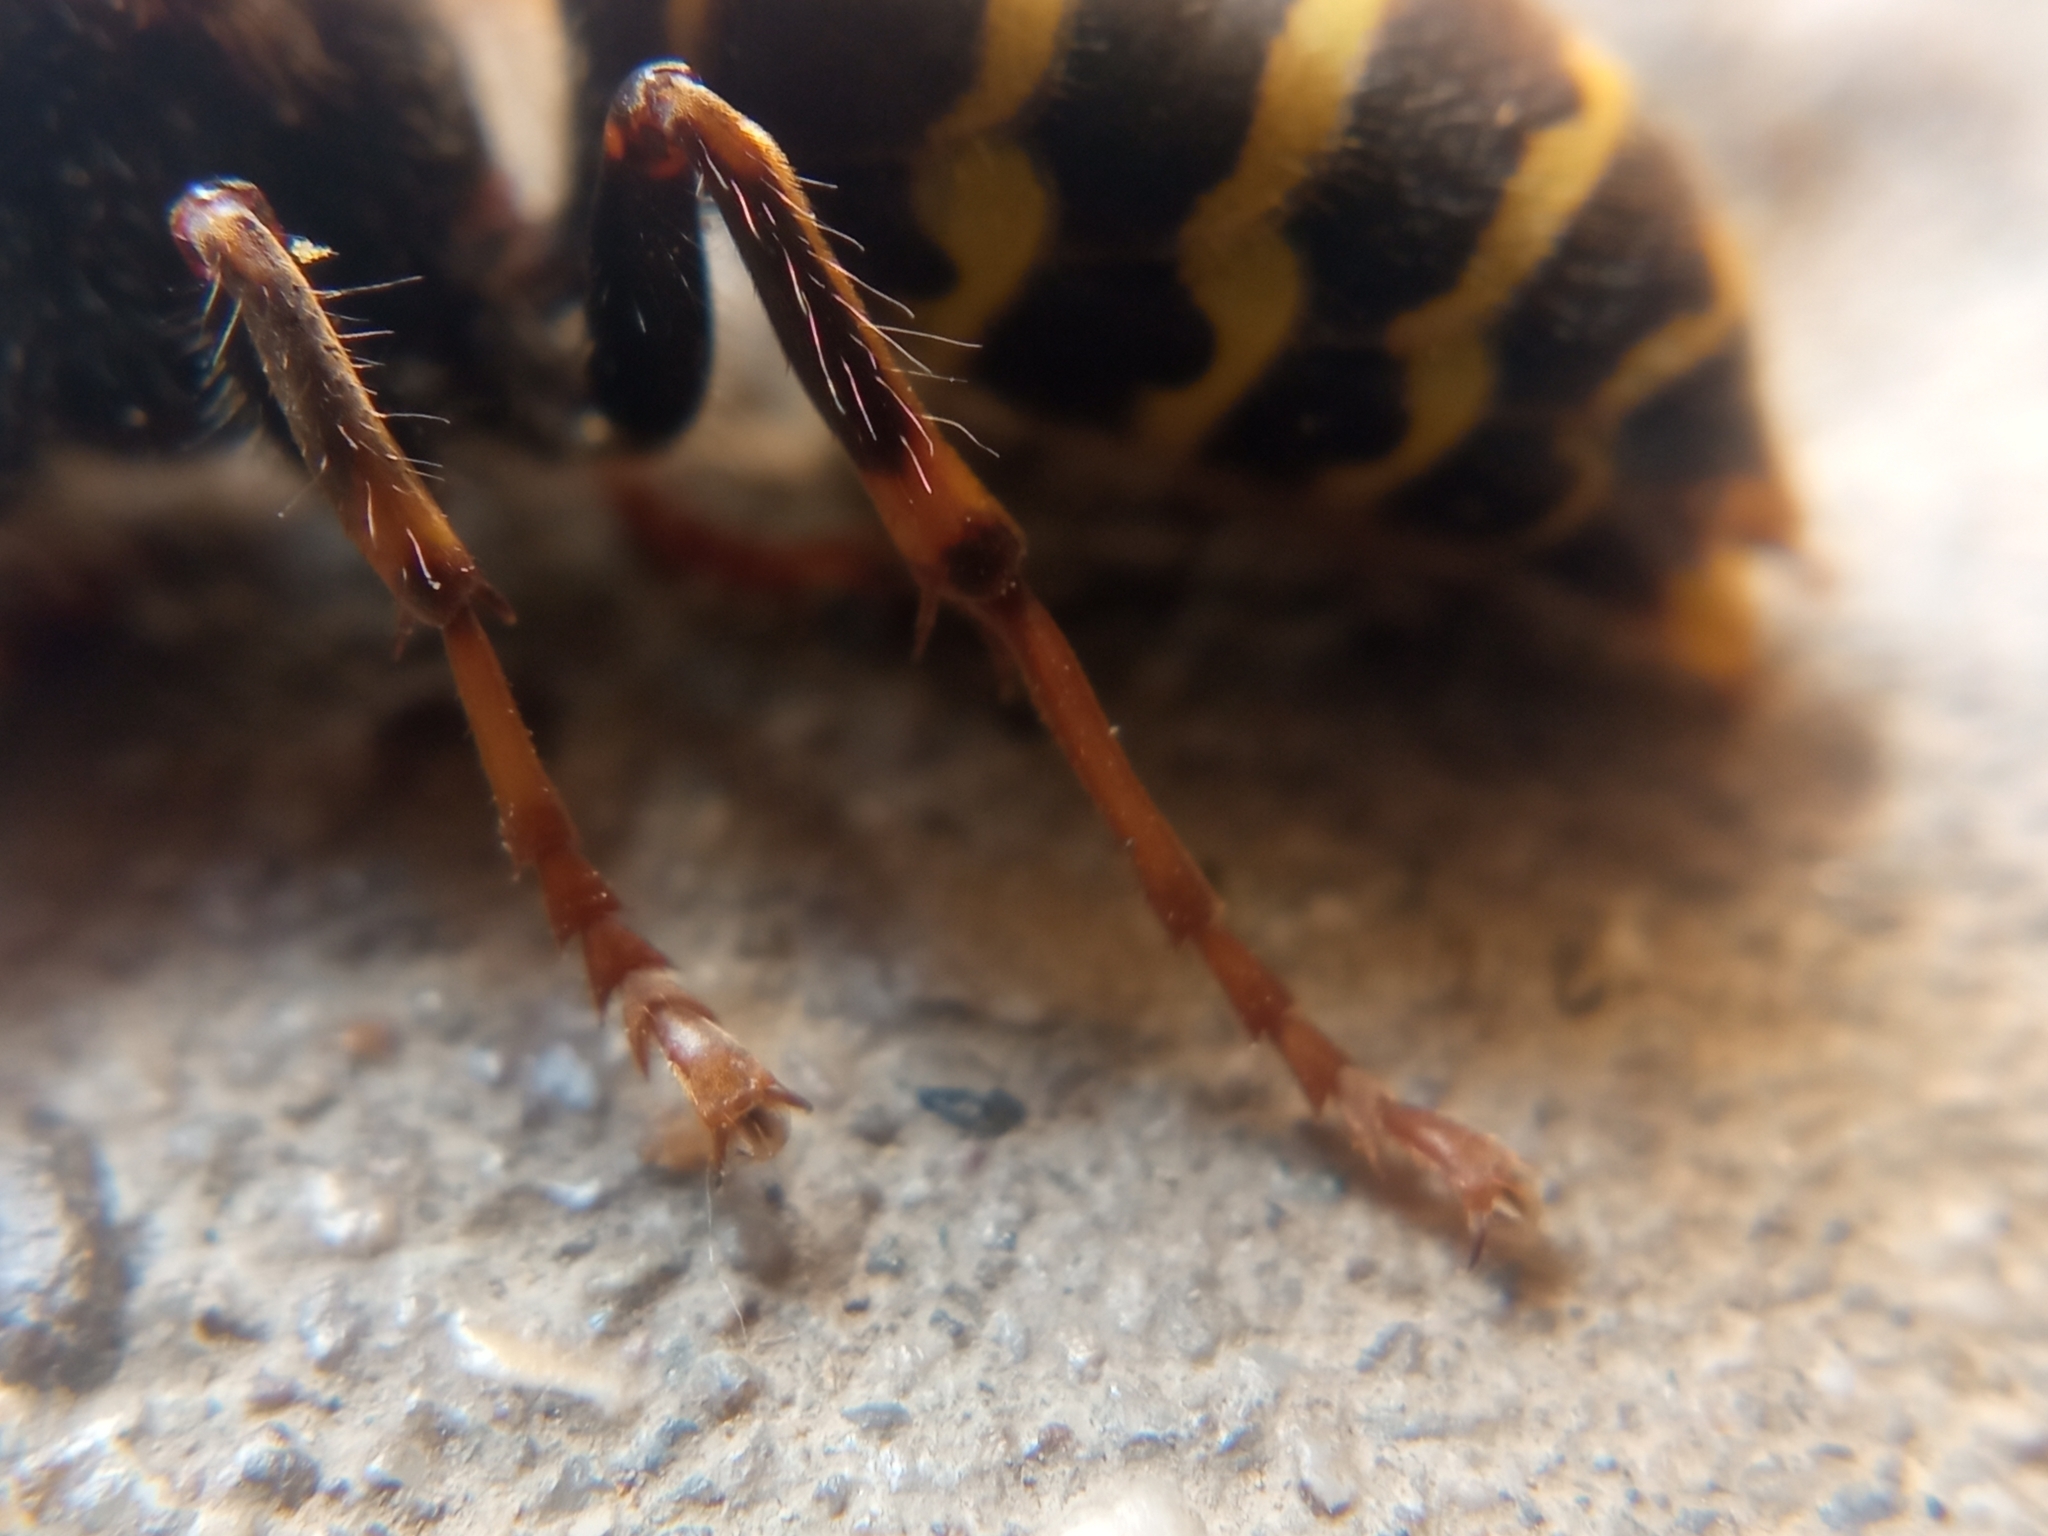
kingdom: Animalia
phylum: Arthropoda
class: Insecta
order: Hymenoptera
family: Vespidae
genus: Dolichovespula
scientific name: Dolichovespula media
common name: Median wasp
